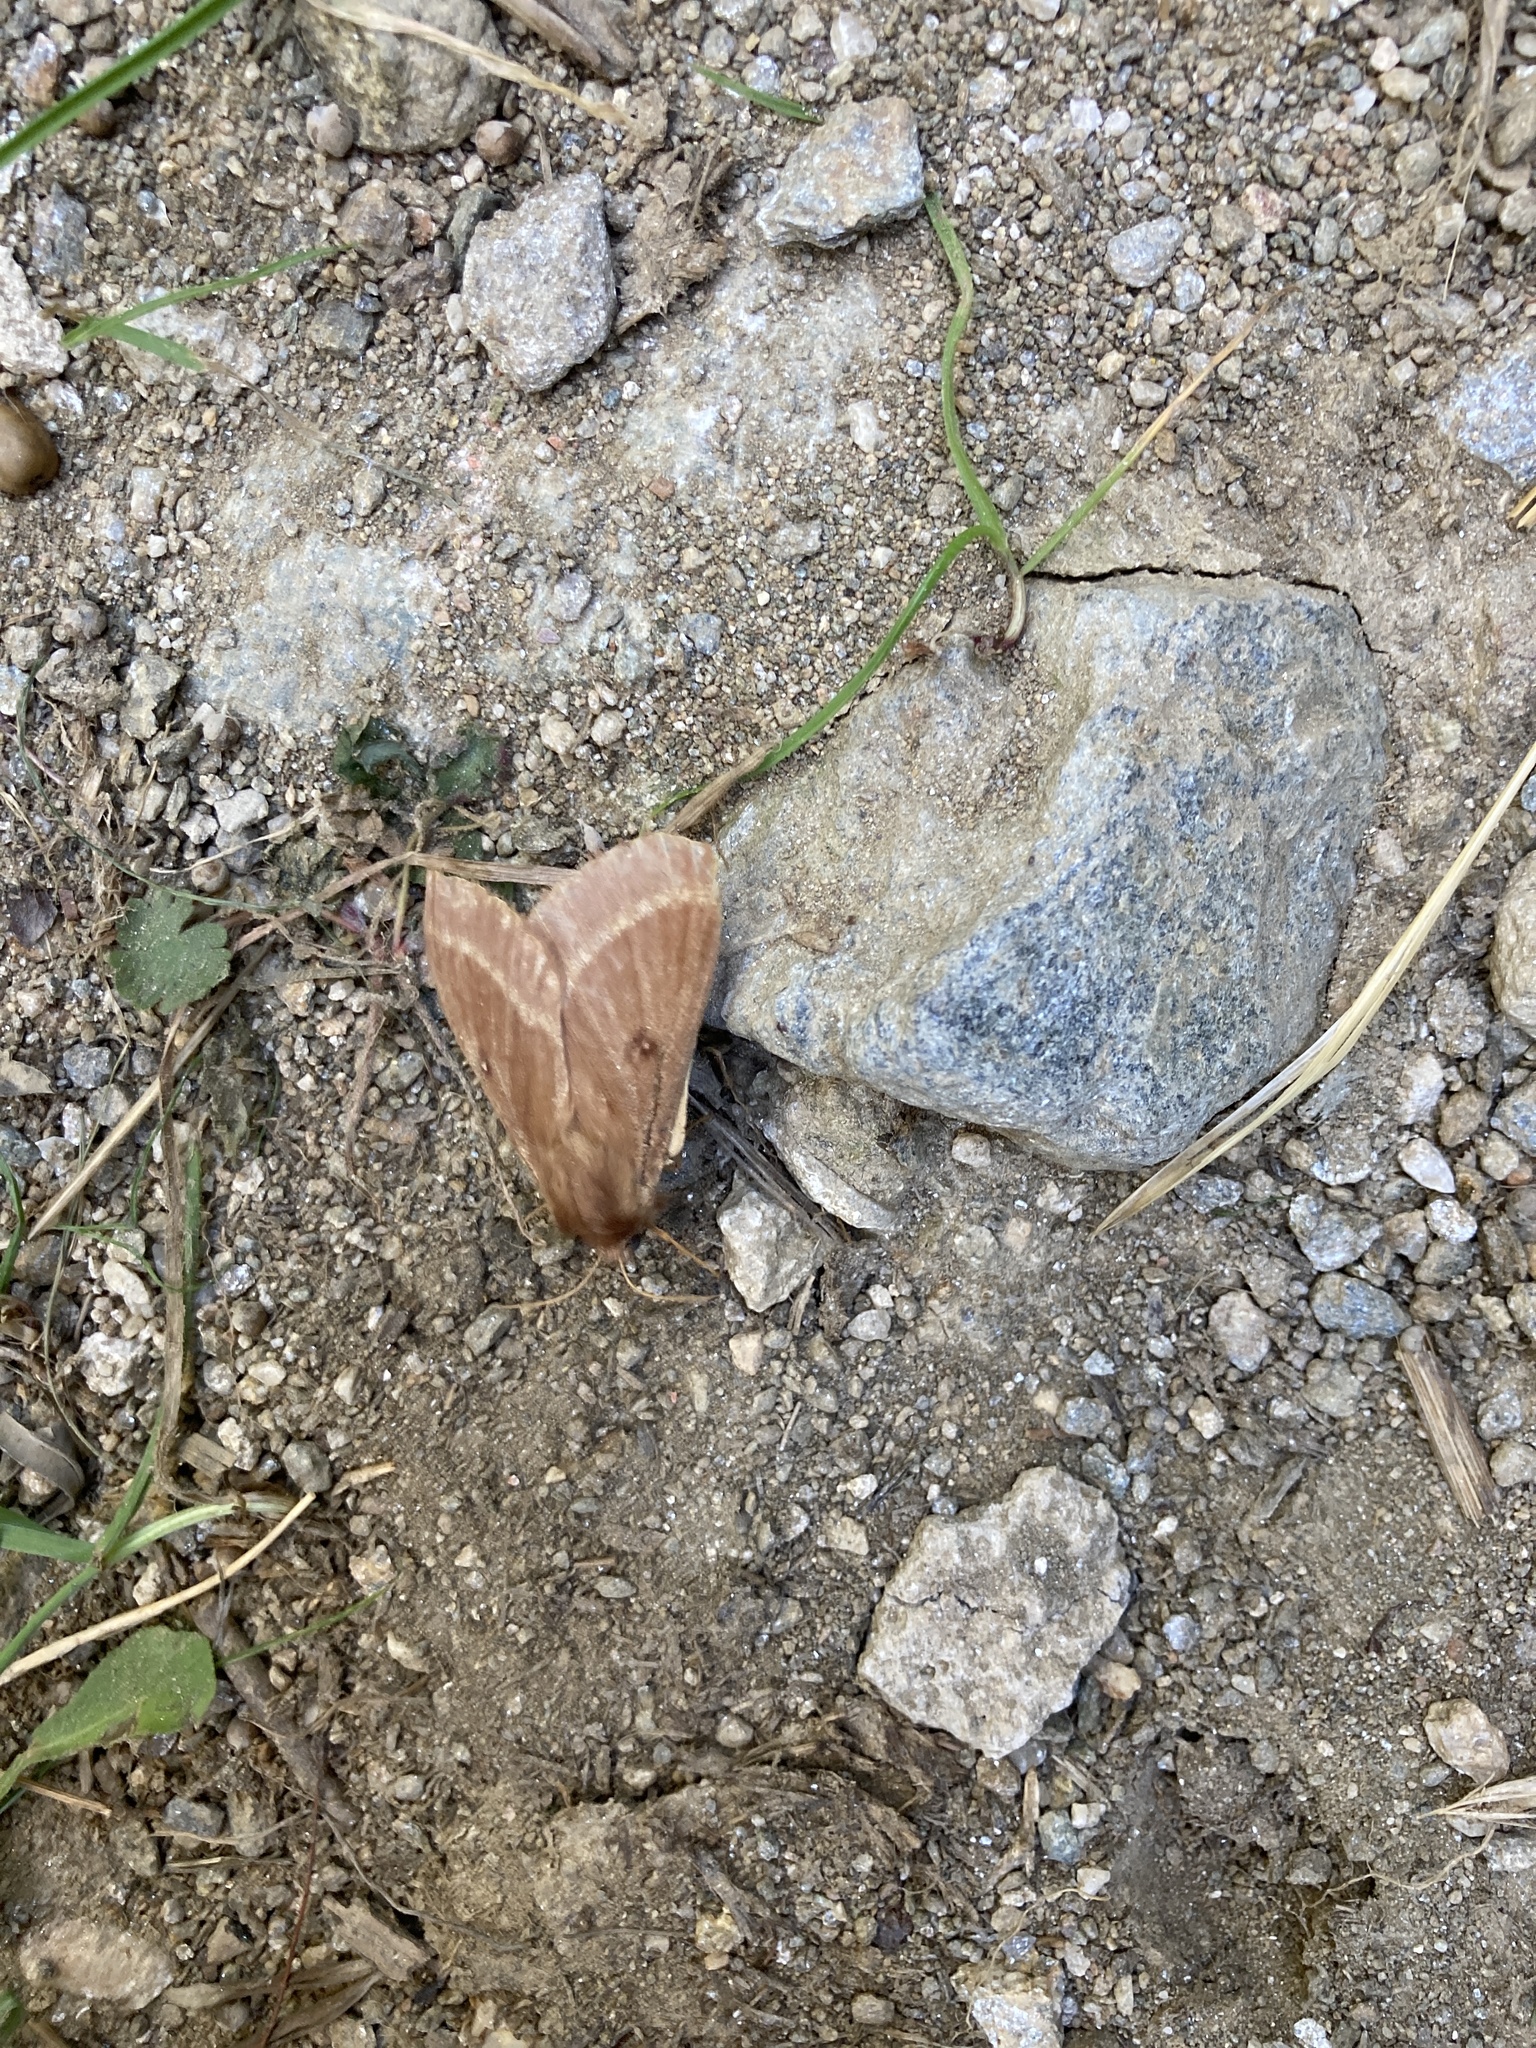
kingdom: Animalia
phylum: Arthropoda
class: Insecta
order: Lepidoptera
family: Lasiocampidae
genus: Lasiocampa
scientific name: Lasiocampa trifolii
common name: Grass eggar
